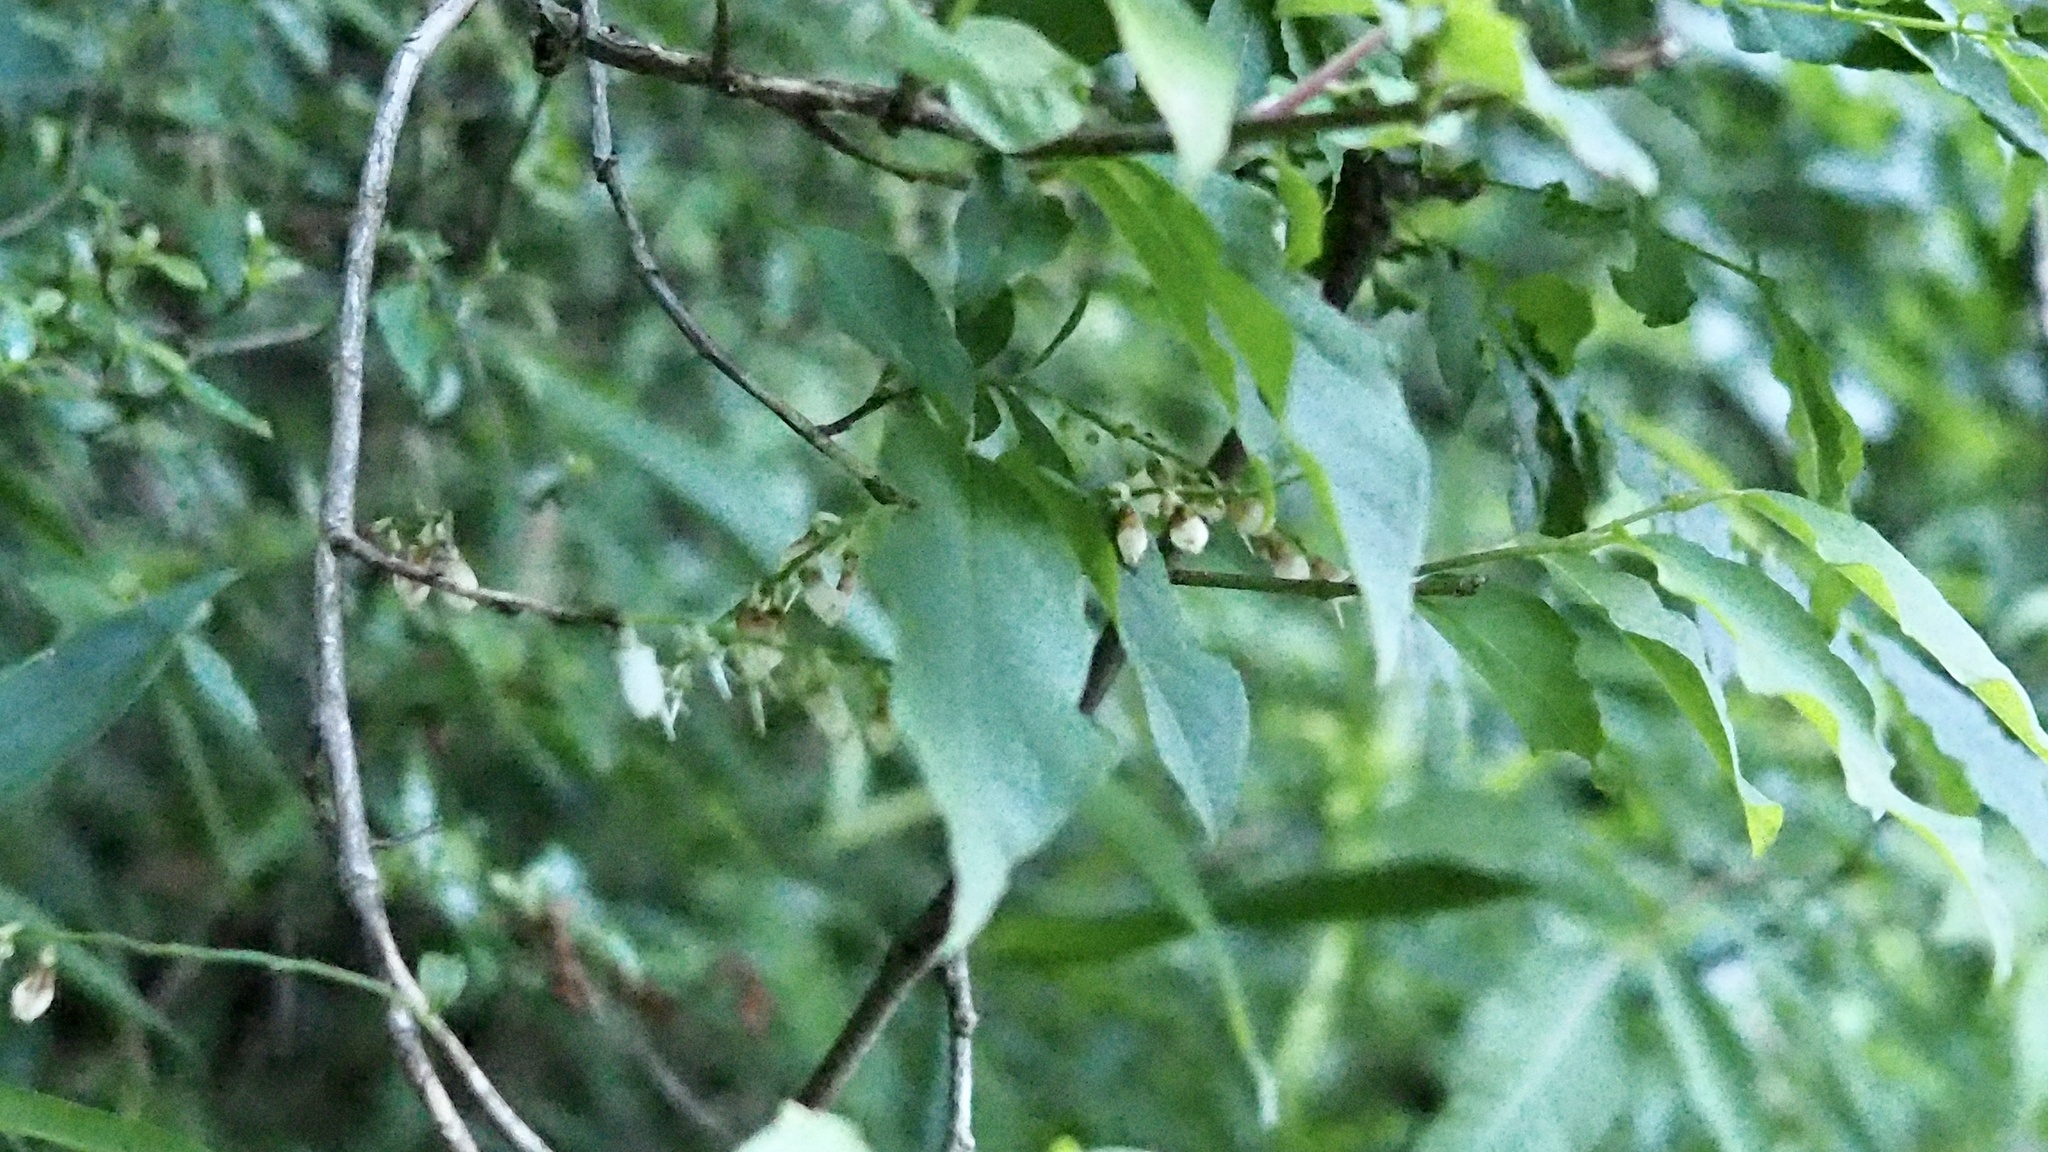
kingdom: Plantae
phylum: Tracheophyta
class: Magnoliopsida
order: Ericales
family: Ericaceae
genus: Lyonia
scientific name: Lyonia ovalifolia
